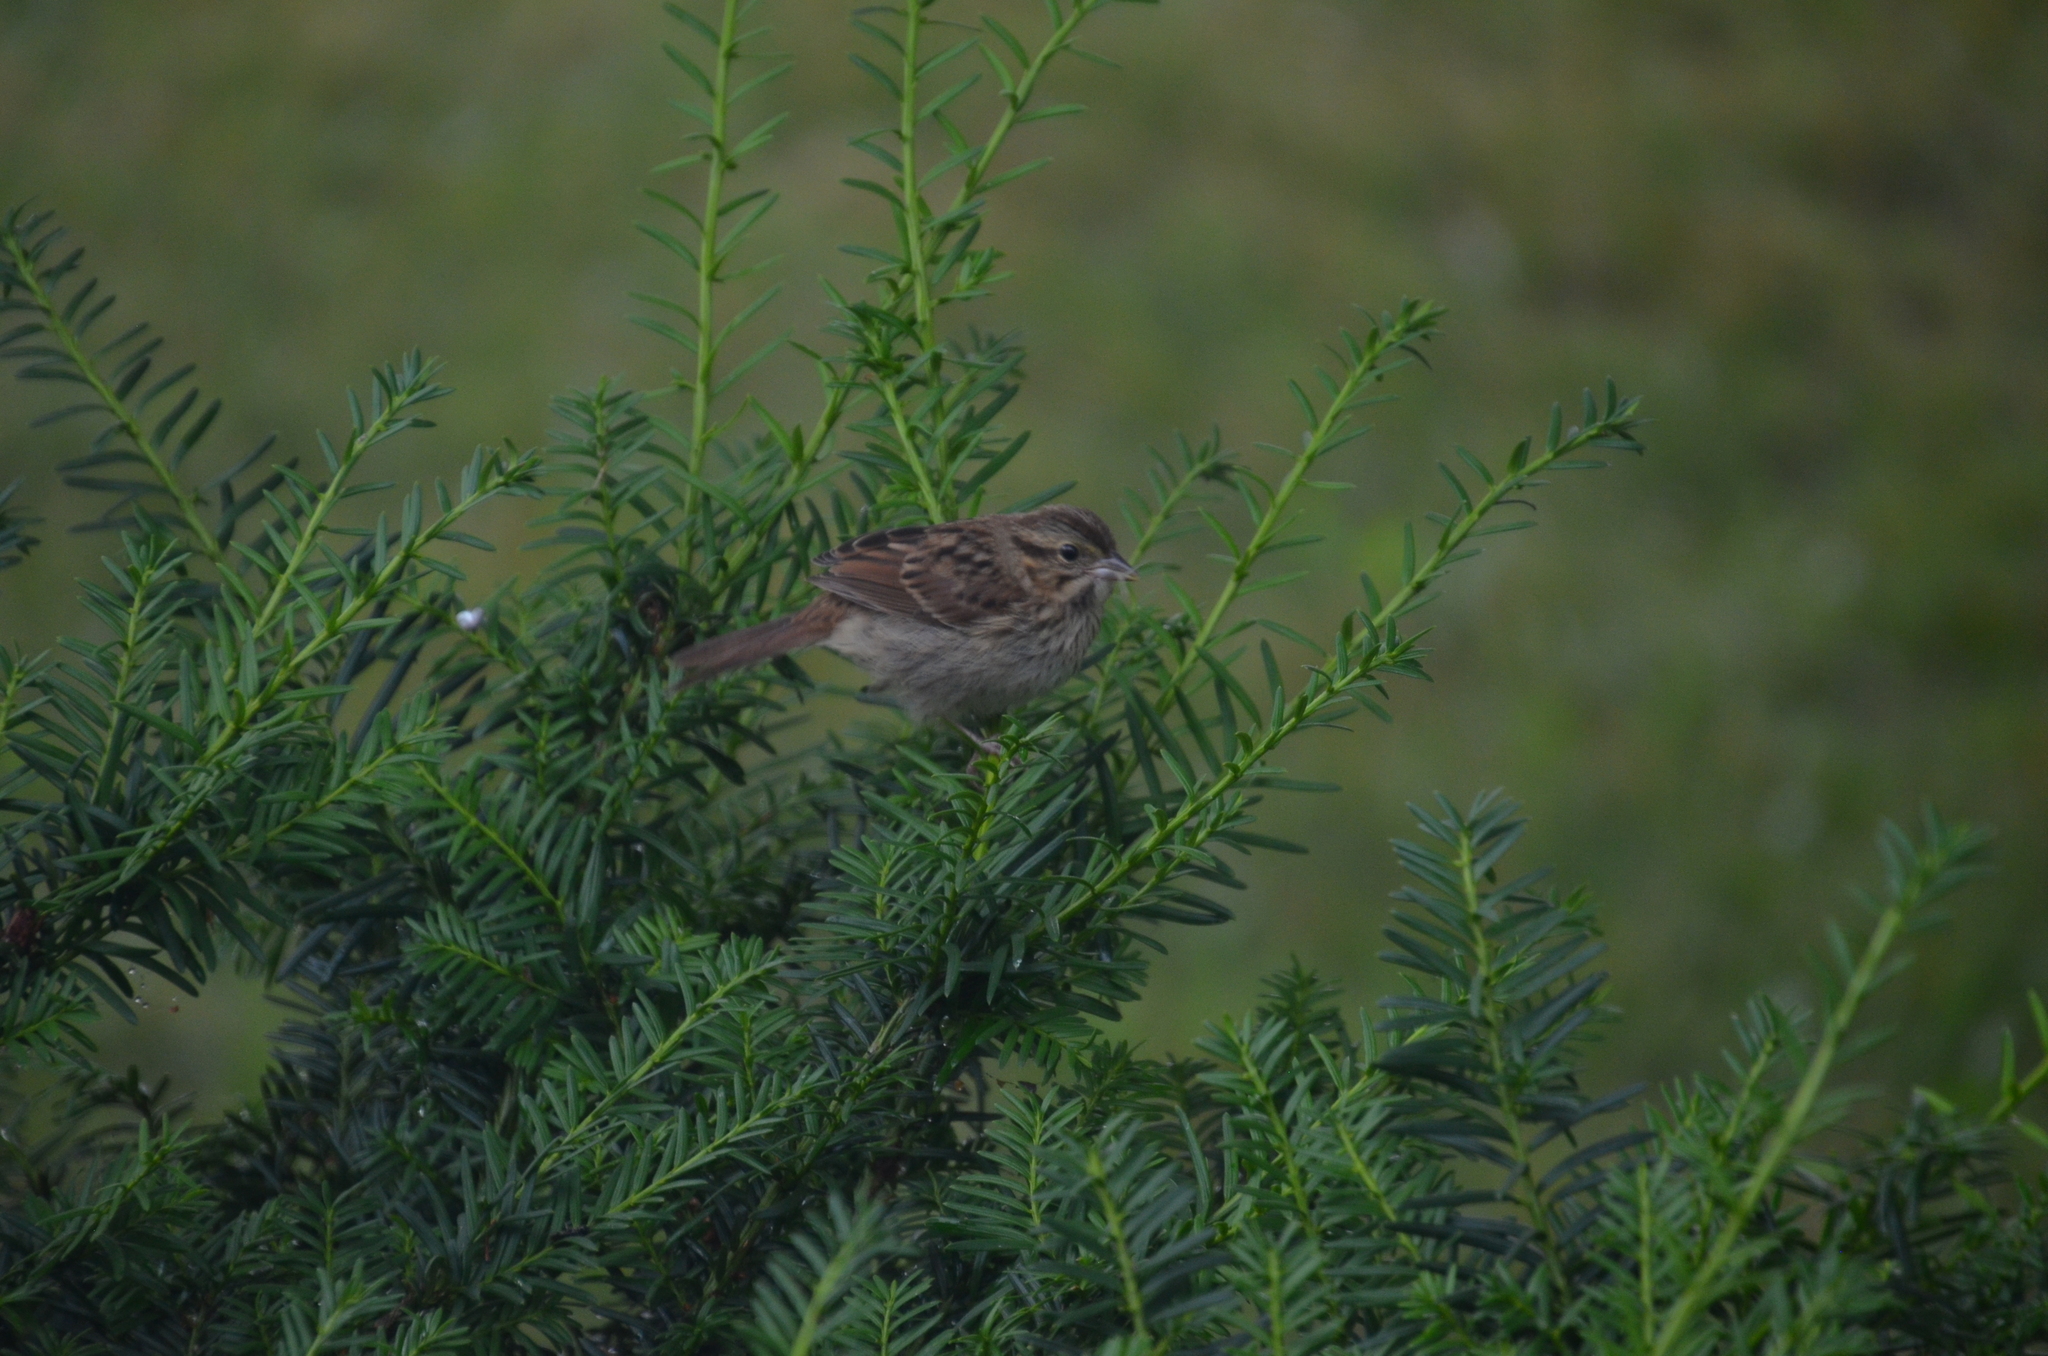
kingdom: Animalia
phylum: Chordata
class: Aves
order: Passeriformes
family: Passerellidae
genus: Melospiza
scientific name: Melospiza melodia
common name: Song sparrow
